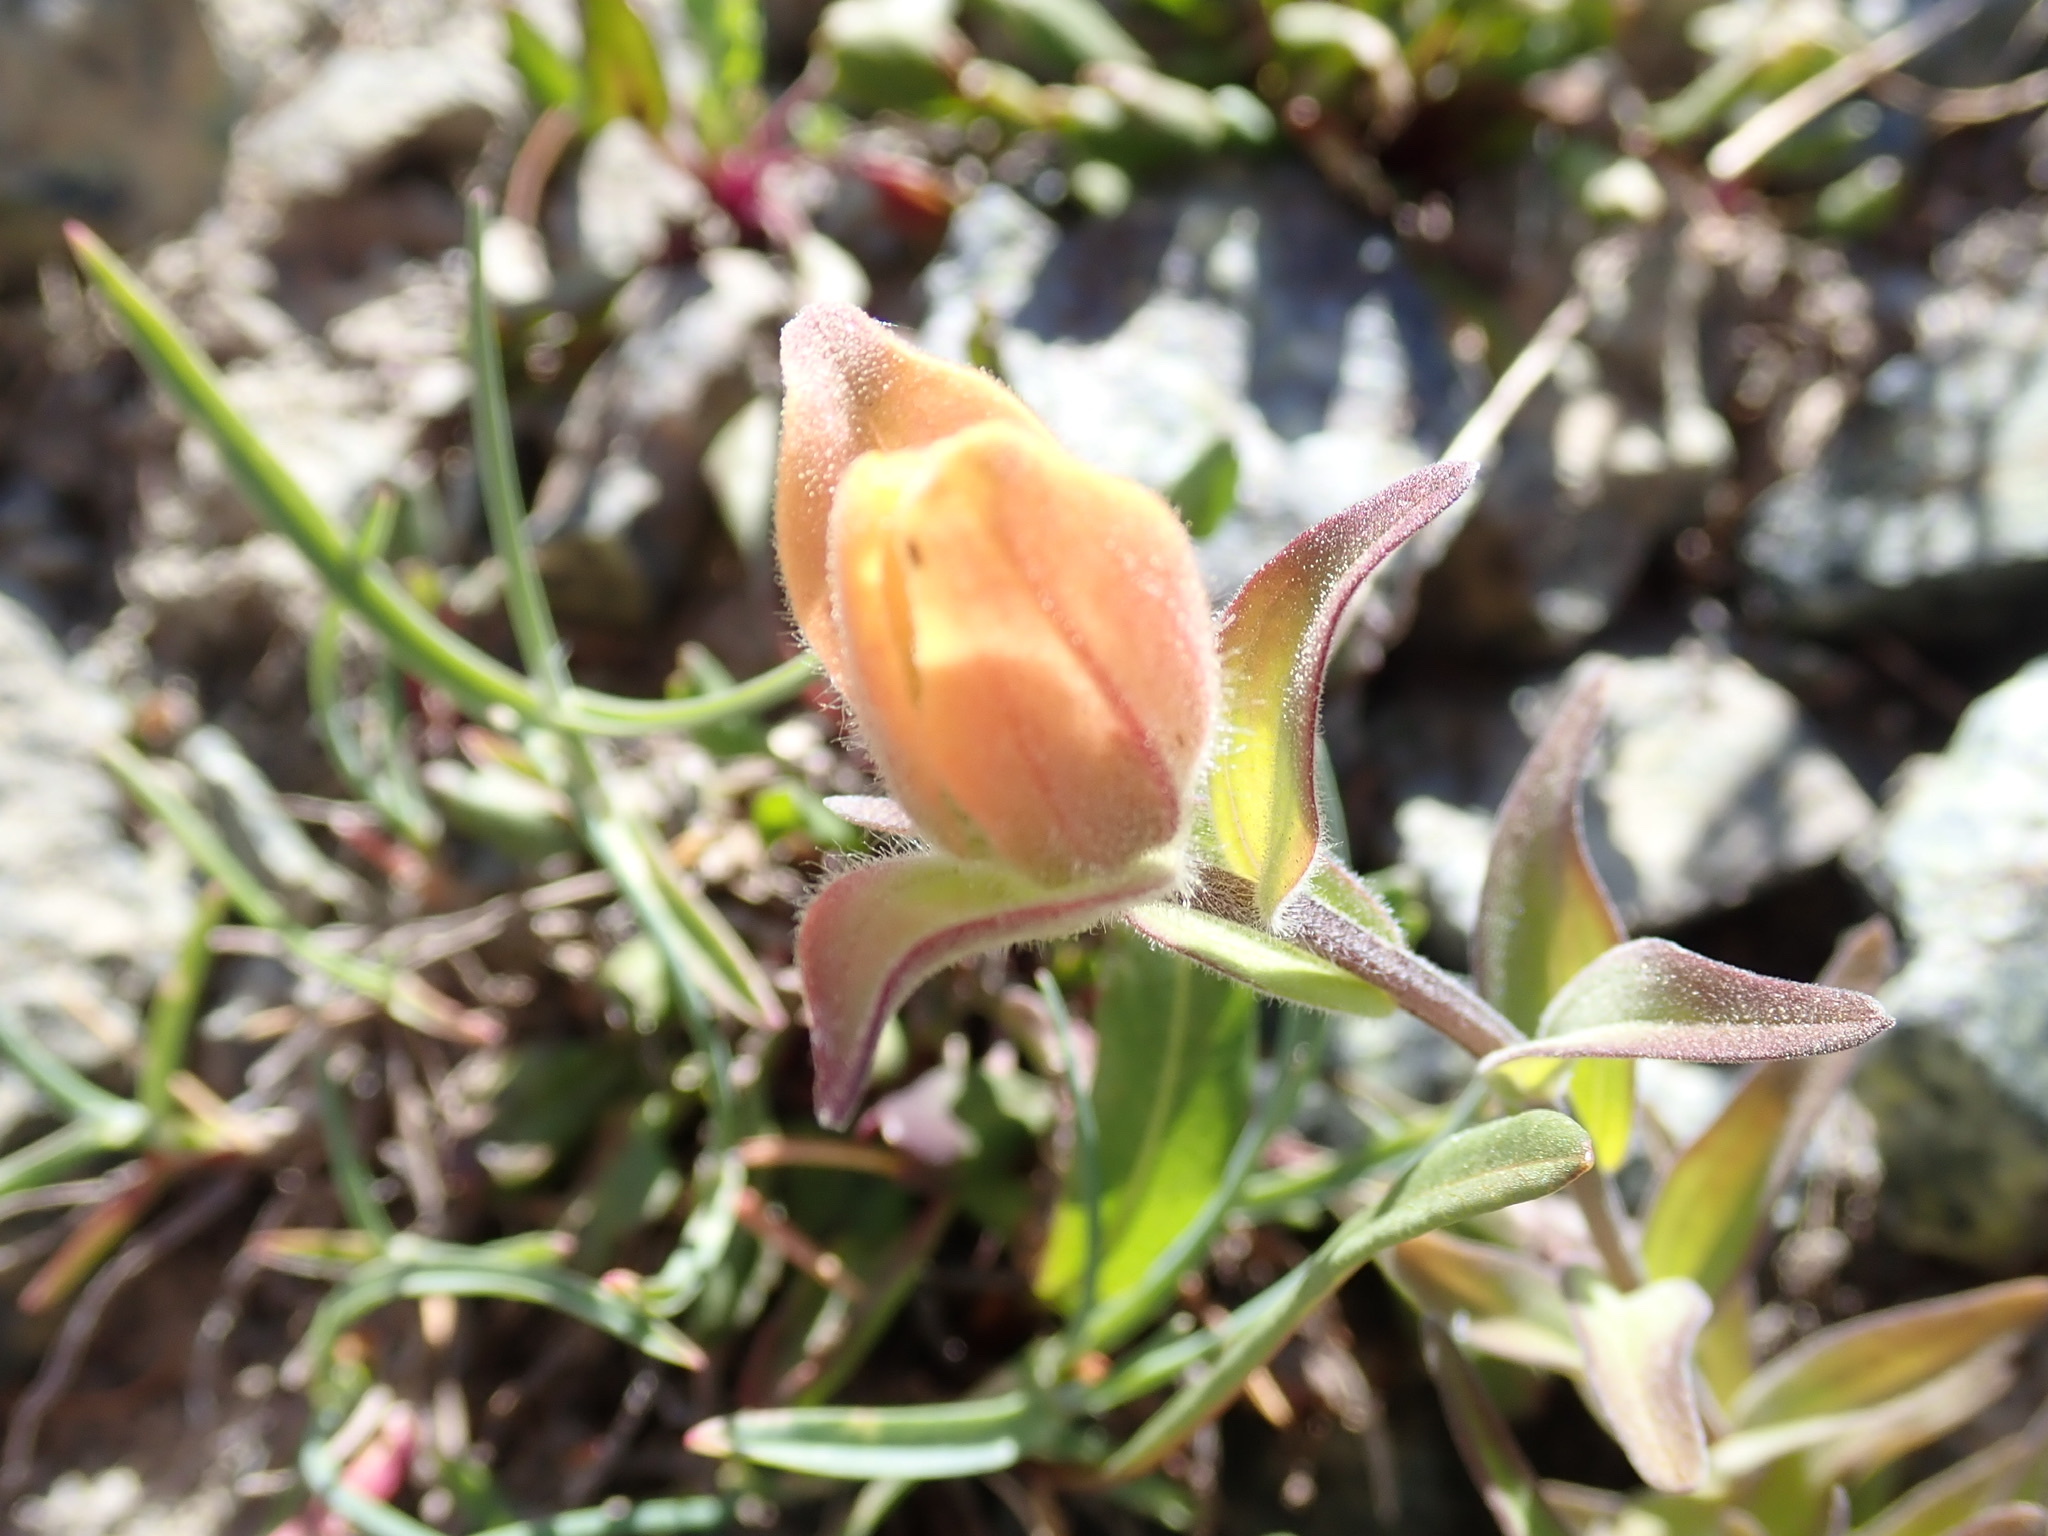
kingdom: Plantae
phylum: Tracheophyta
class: Magnoliopsida
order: Lamiales
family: Orobanchaceae
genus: Castilleja
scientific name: Castilleja elmeri
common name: Elmer's paintbrush
